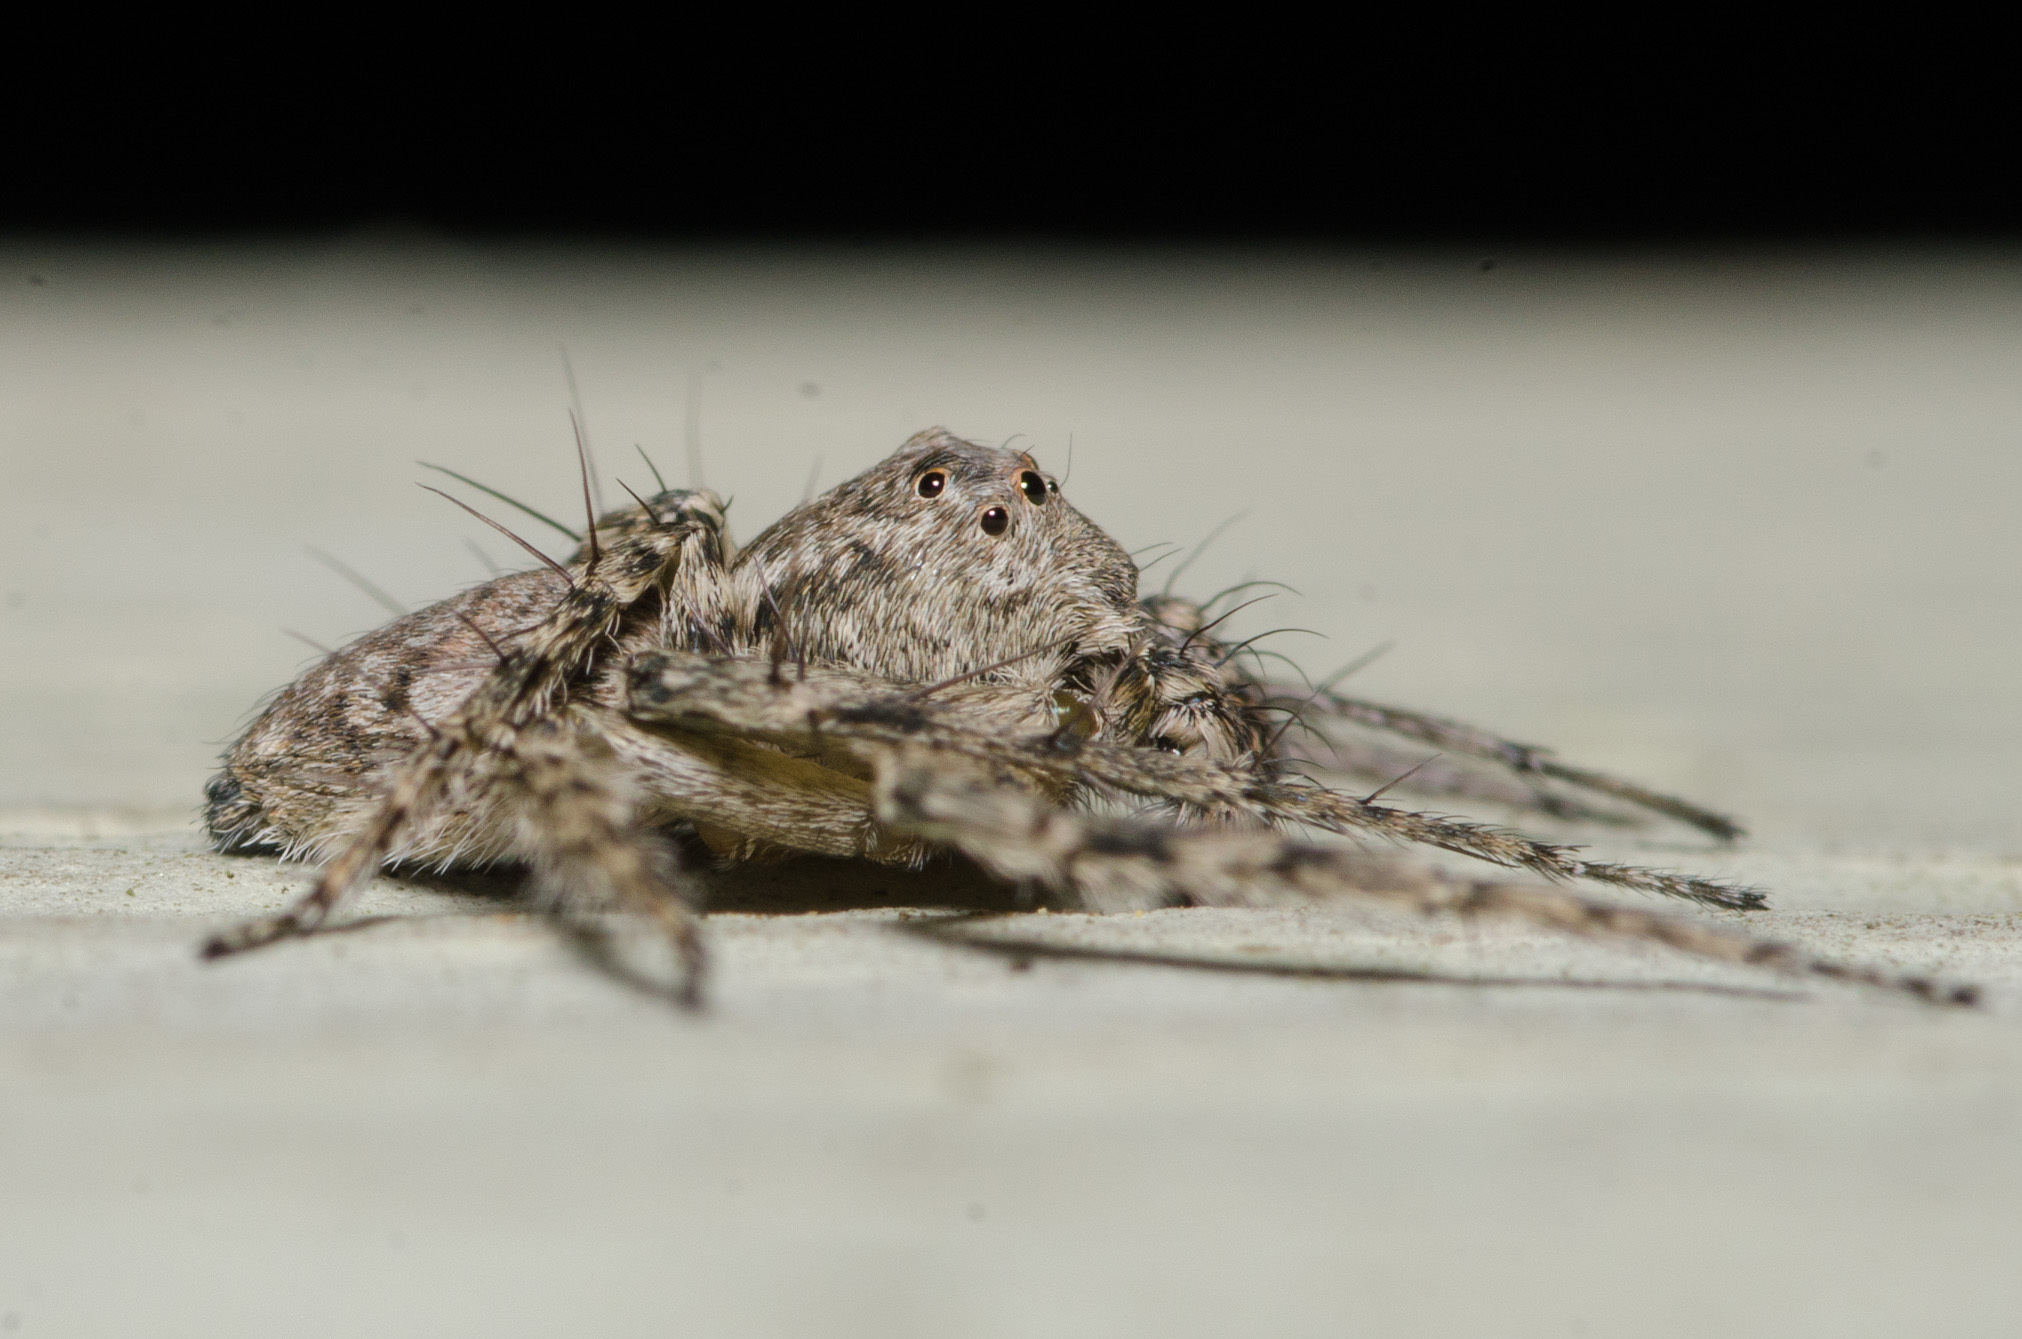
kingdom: Animalia
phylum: Arthropoda
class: Arachnida
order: Araneae
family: Oxyopidae
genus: Hamataliwa
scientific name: Hamataliwa grisea
